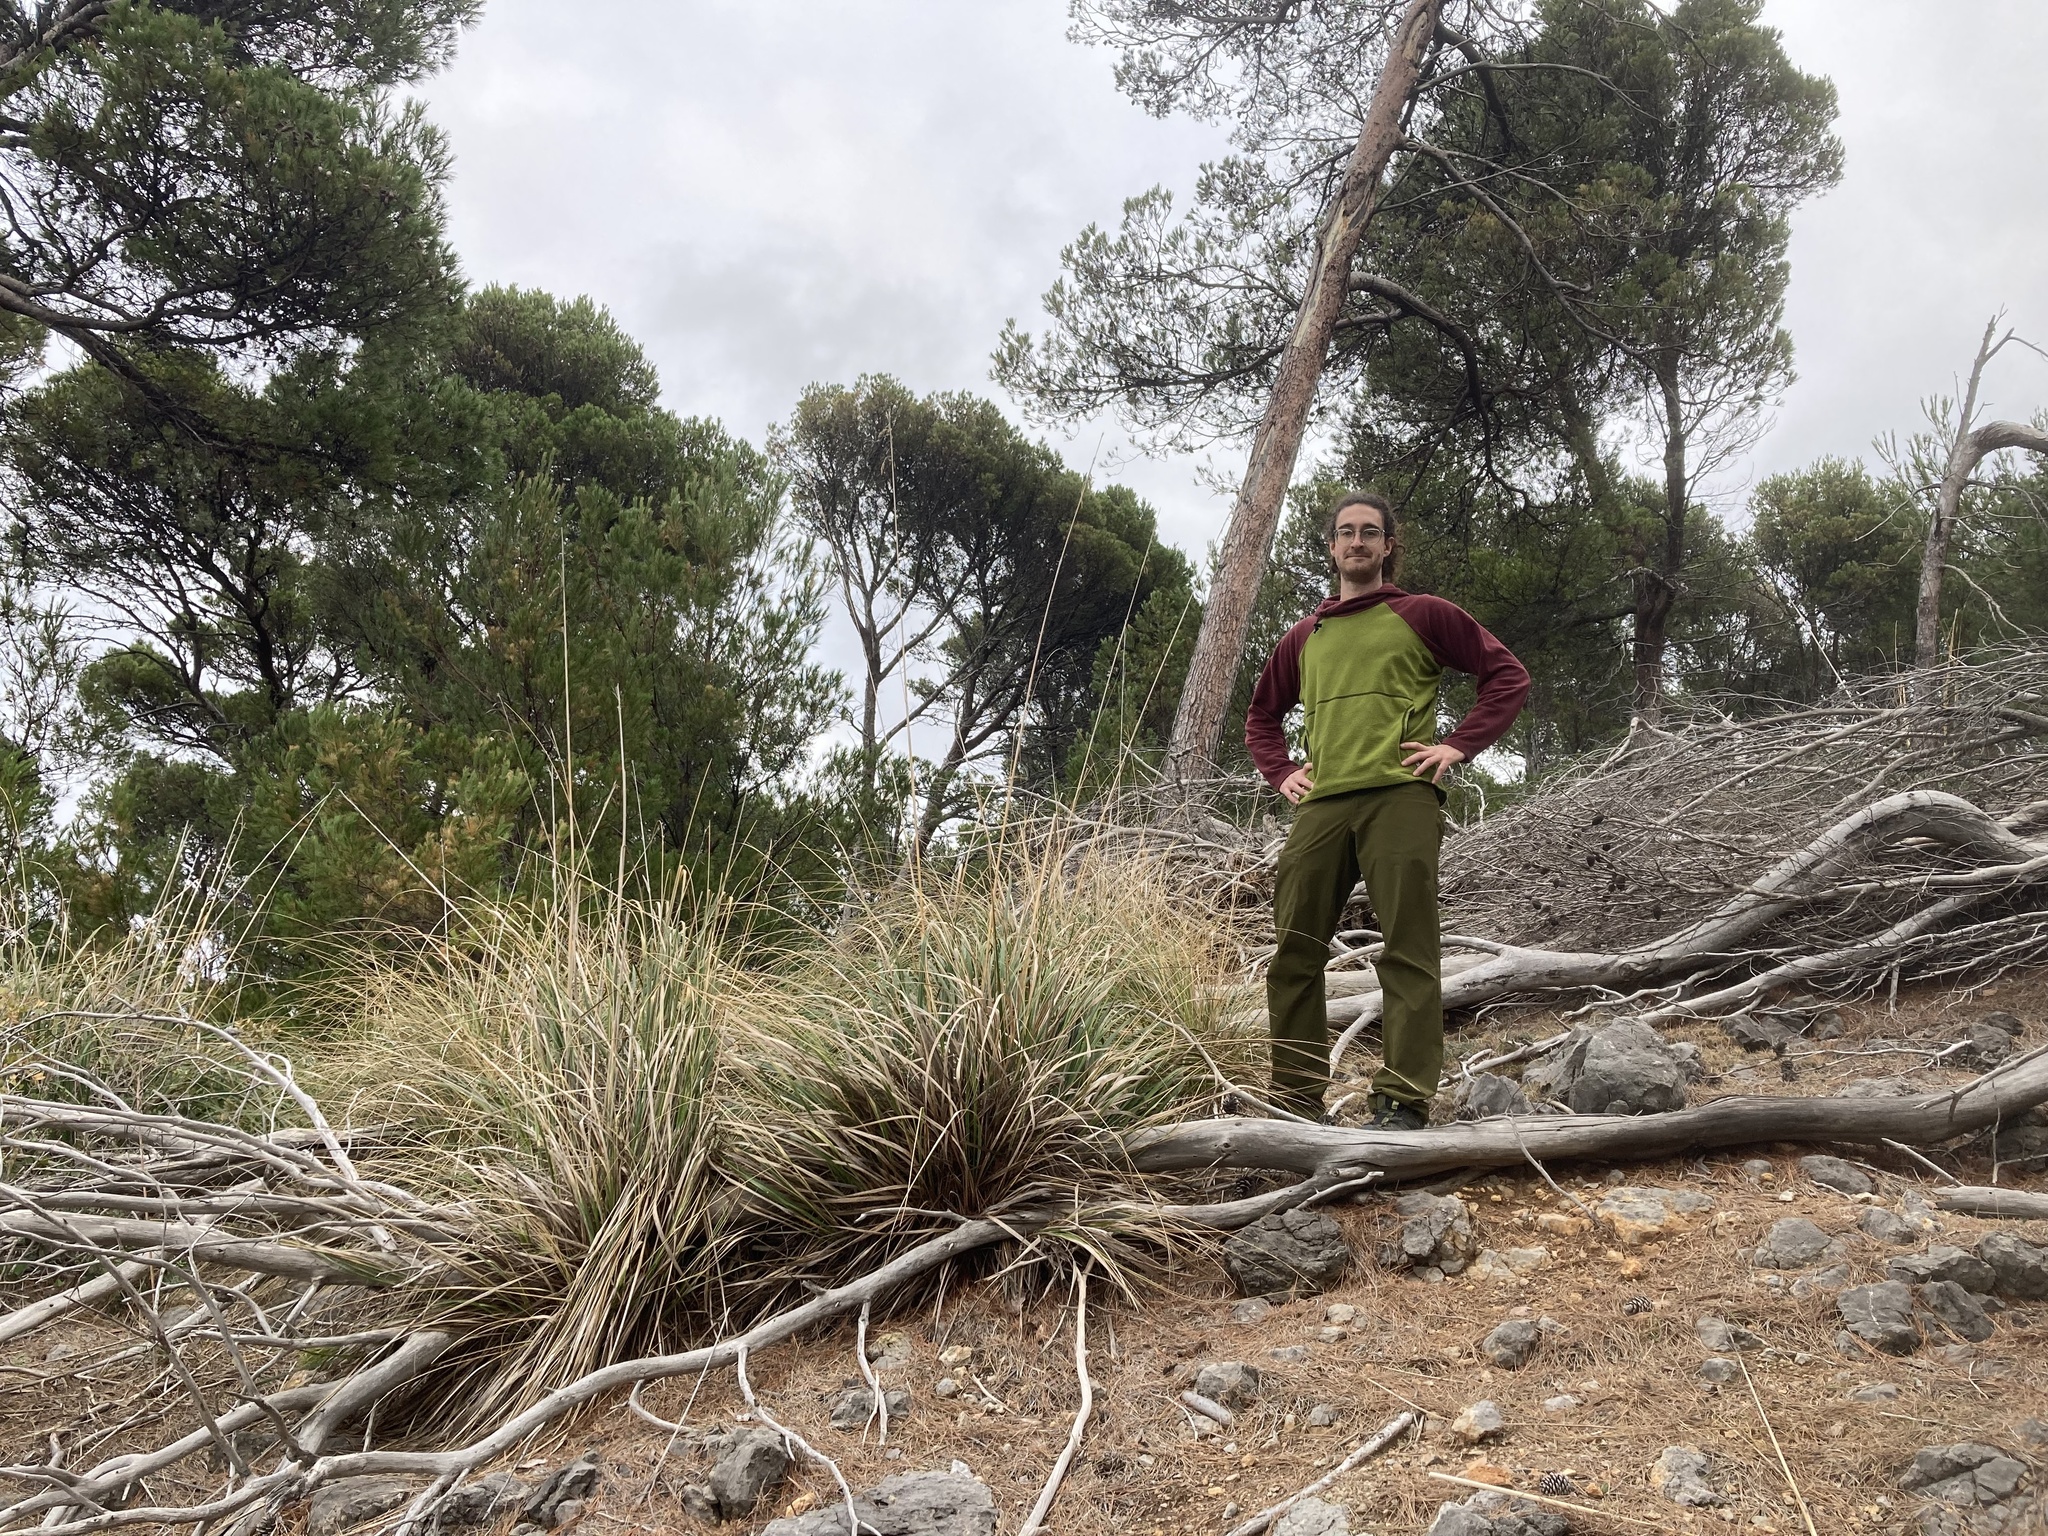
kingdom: Plantae
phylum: Tracheophyta
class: Liliopsida
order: Poales
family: Poaceae
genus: Ampelodesmos
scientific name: Ampelodesmos mauritanicus
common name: Mauritanian grass
